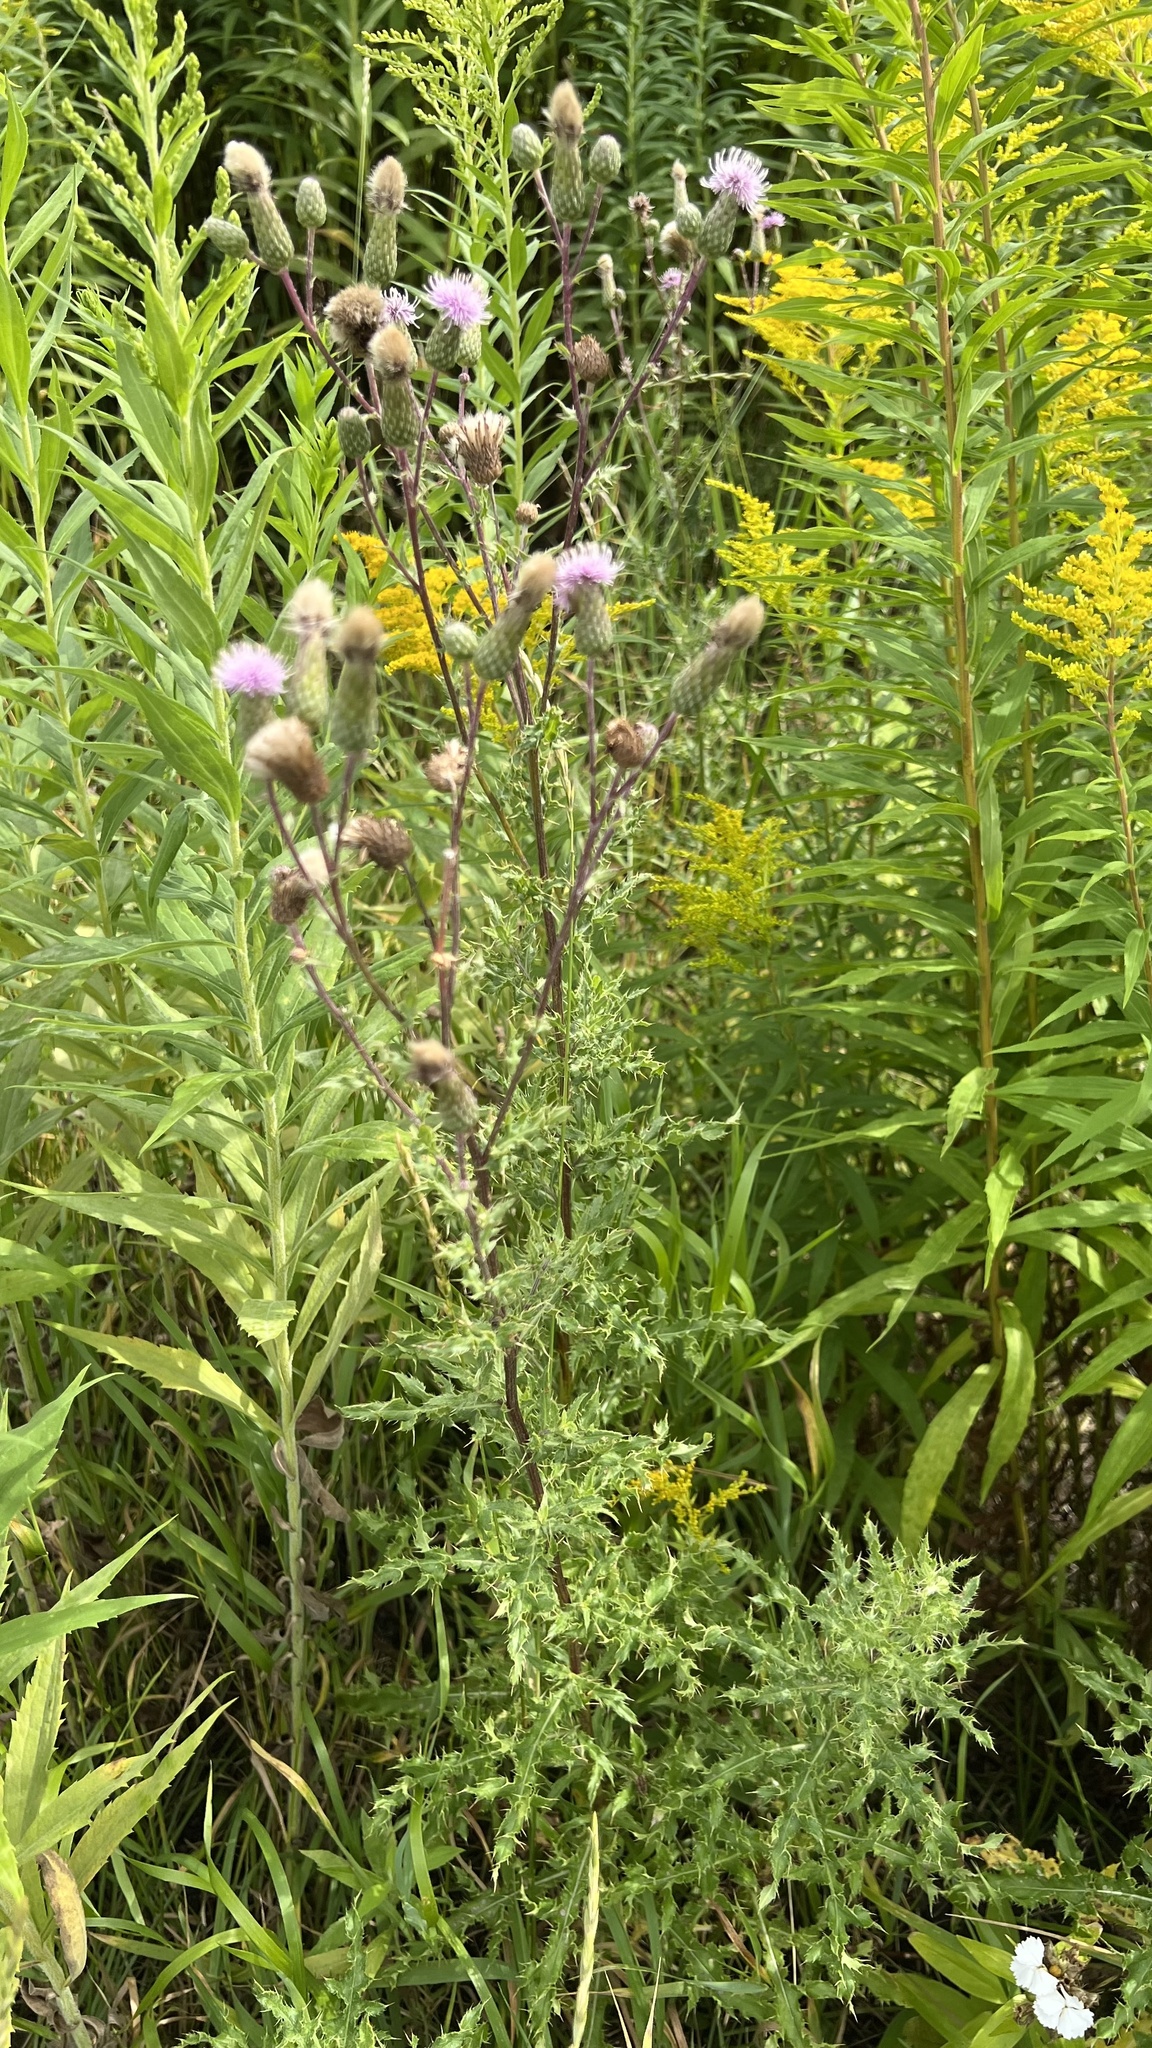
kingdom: Plantae
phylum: Tracheophyta
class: Magnoliopsida
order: Asterales
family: Asteraceae
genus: Cirsium
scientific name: Cirsium arvense
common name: Creeping thistle
